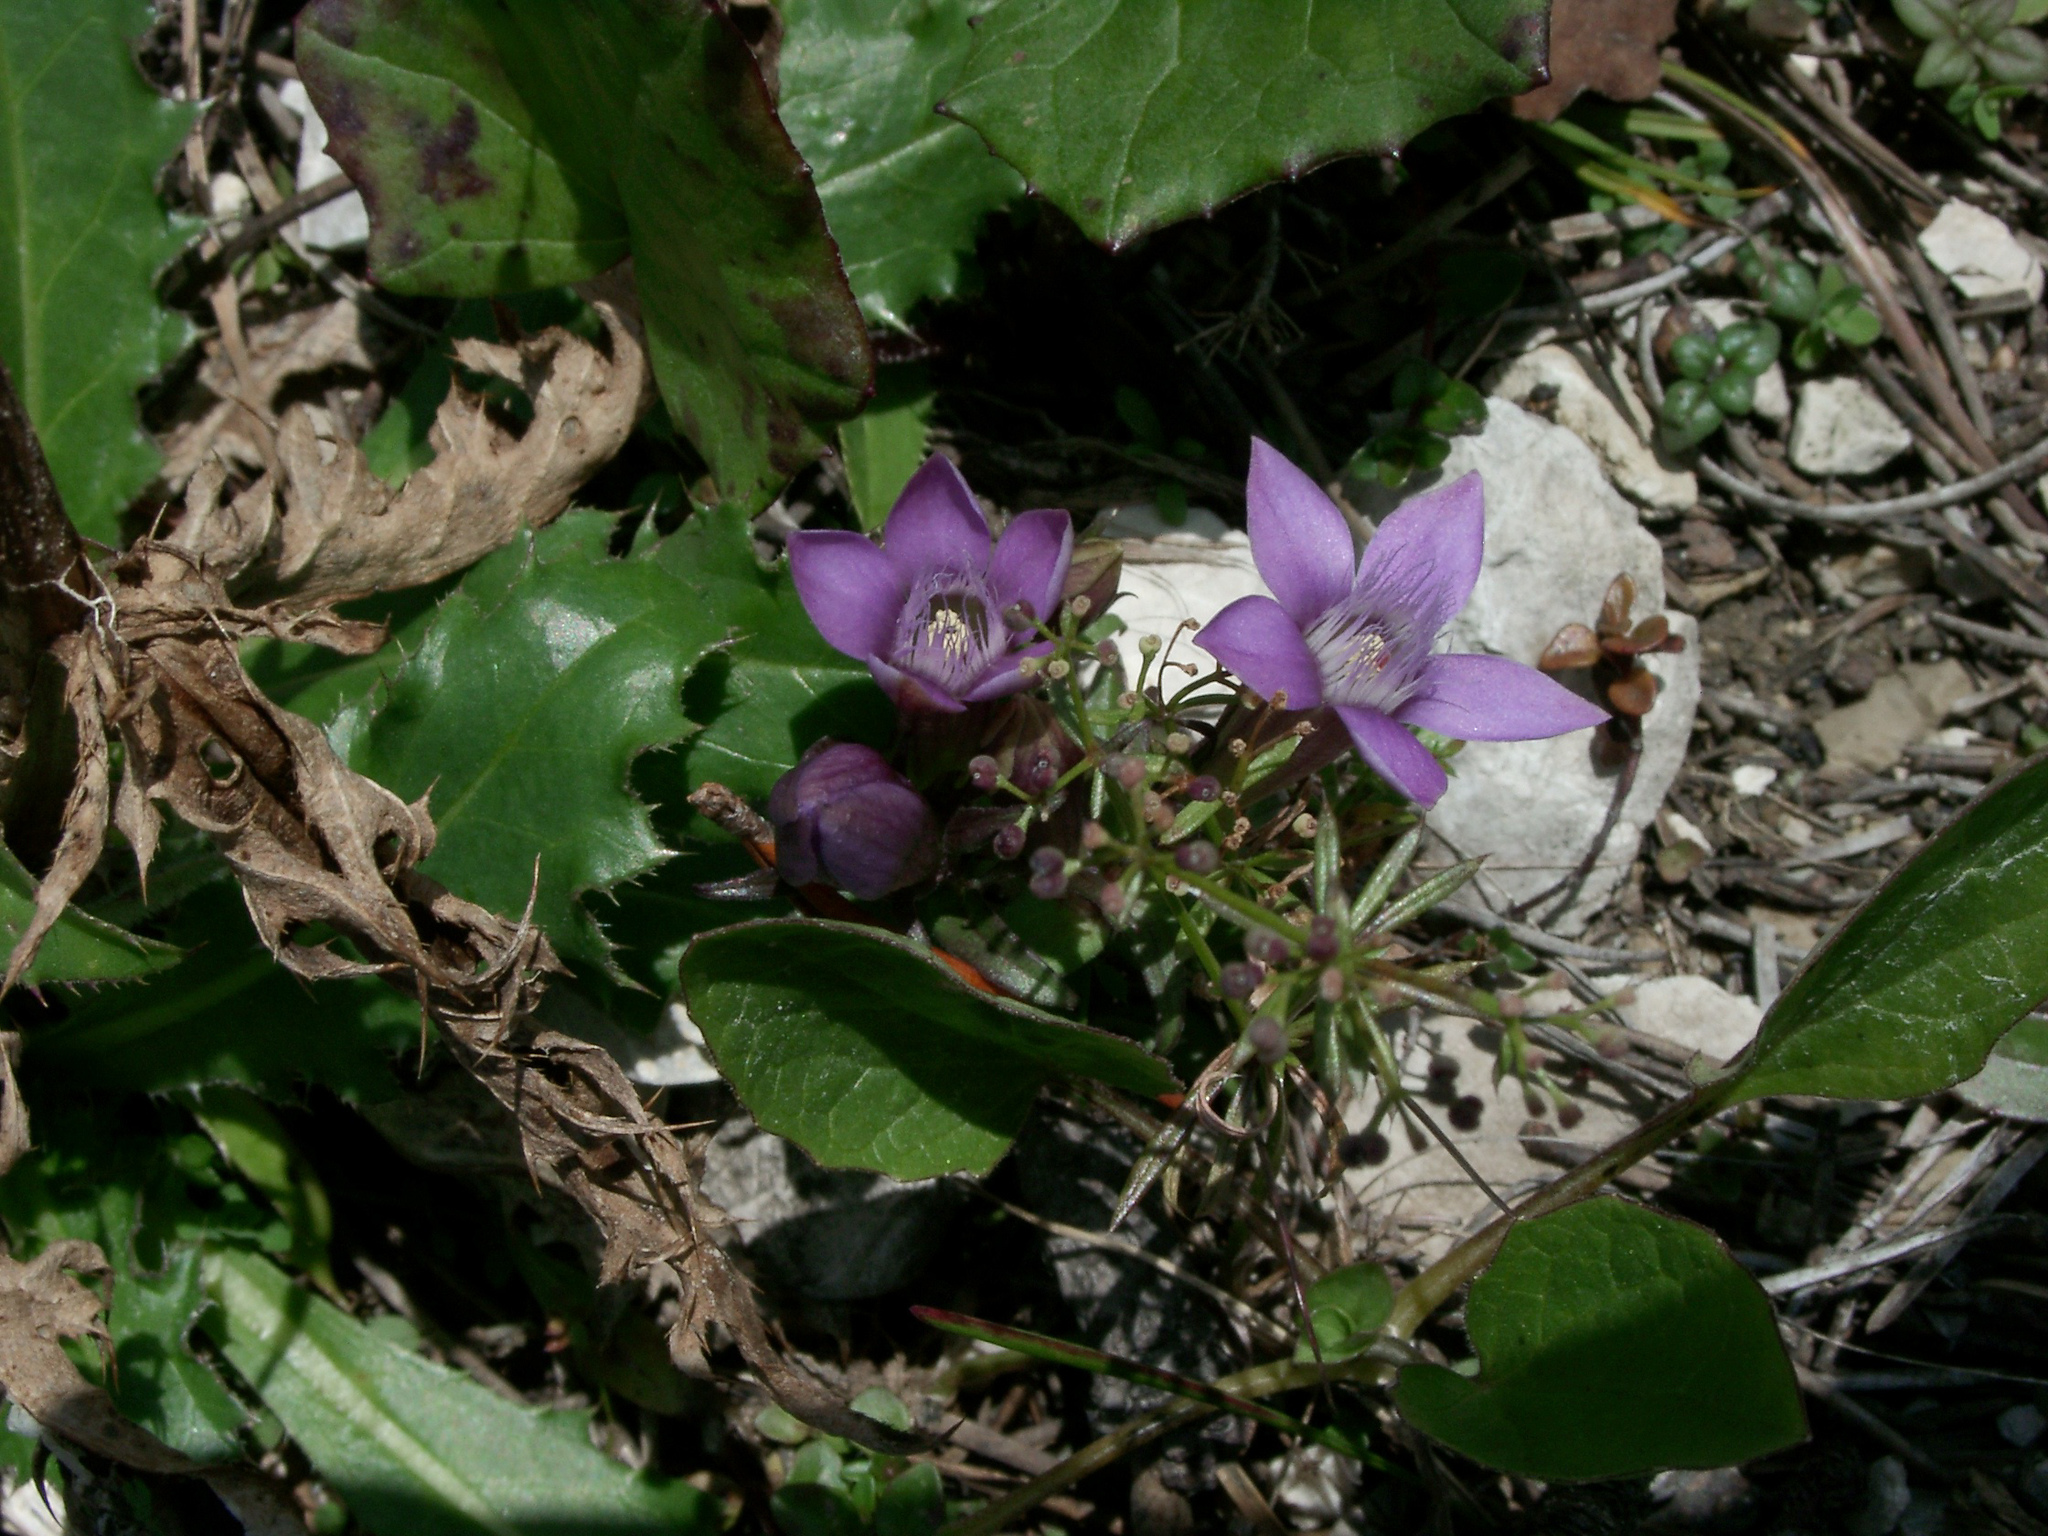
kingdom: Plantae
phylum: Tracheophyta
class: Magnoliopsida
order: Gentianales
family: Gentianaceae
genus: Gentianella
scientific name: Gentianella
